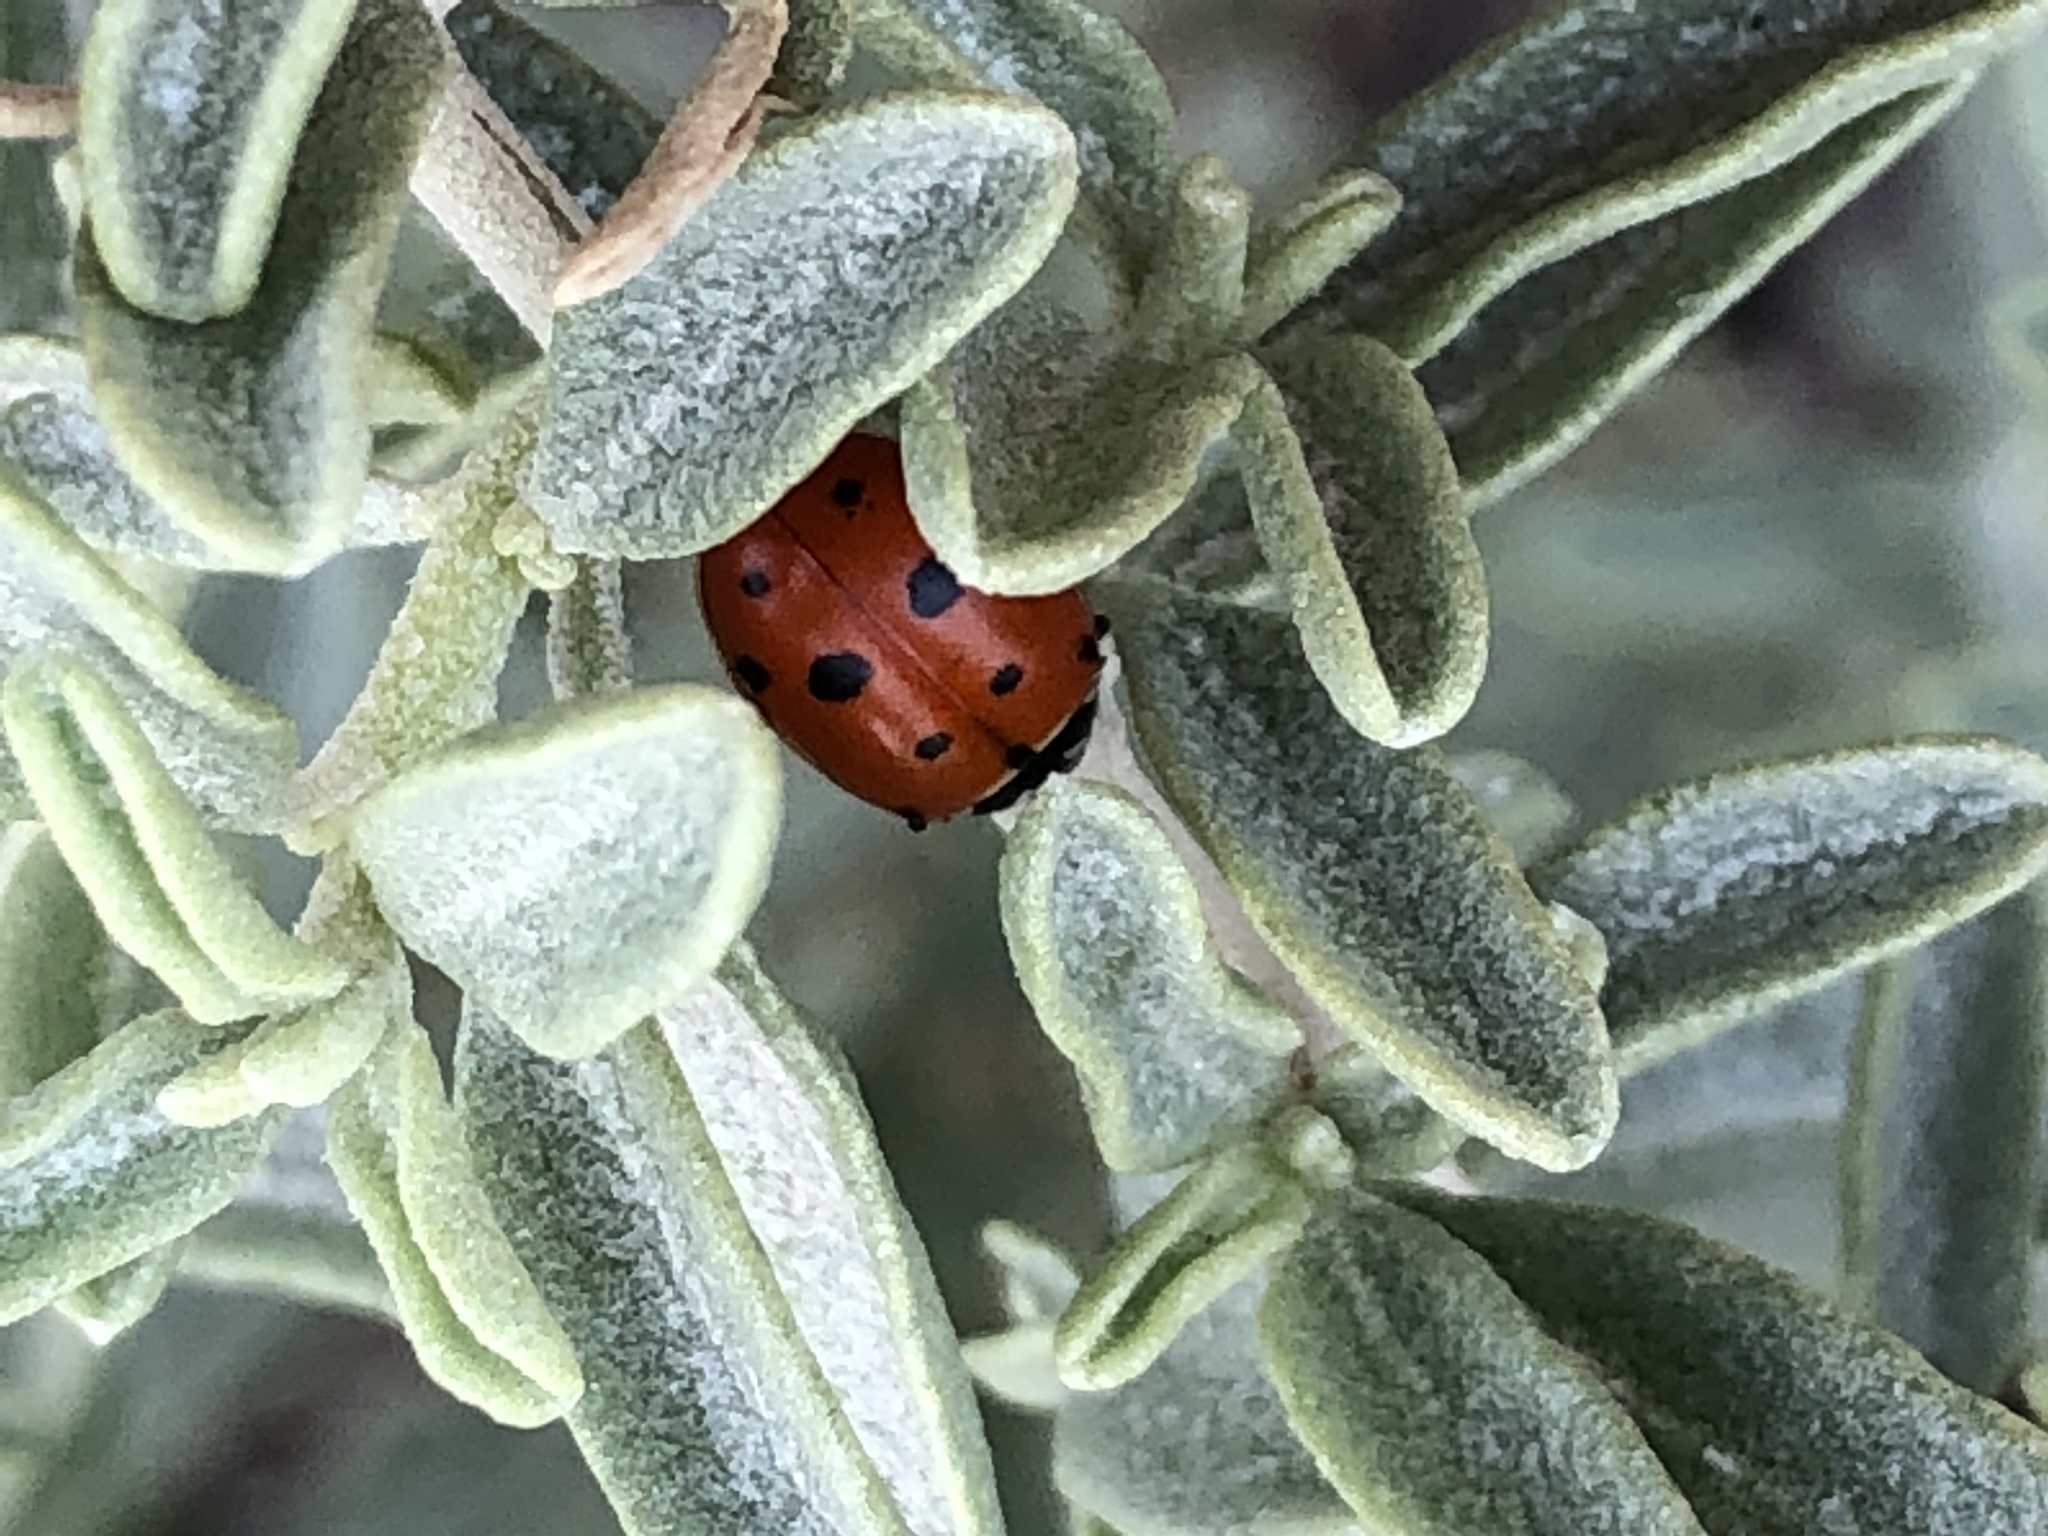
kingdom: Animalia
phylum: Arthropoda
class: Insecta
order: Coleoptera
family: Coccinellidae
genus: Hippodamia
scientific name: Hippodamia convergens
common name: Convergent lady beetle
